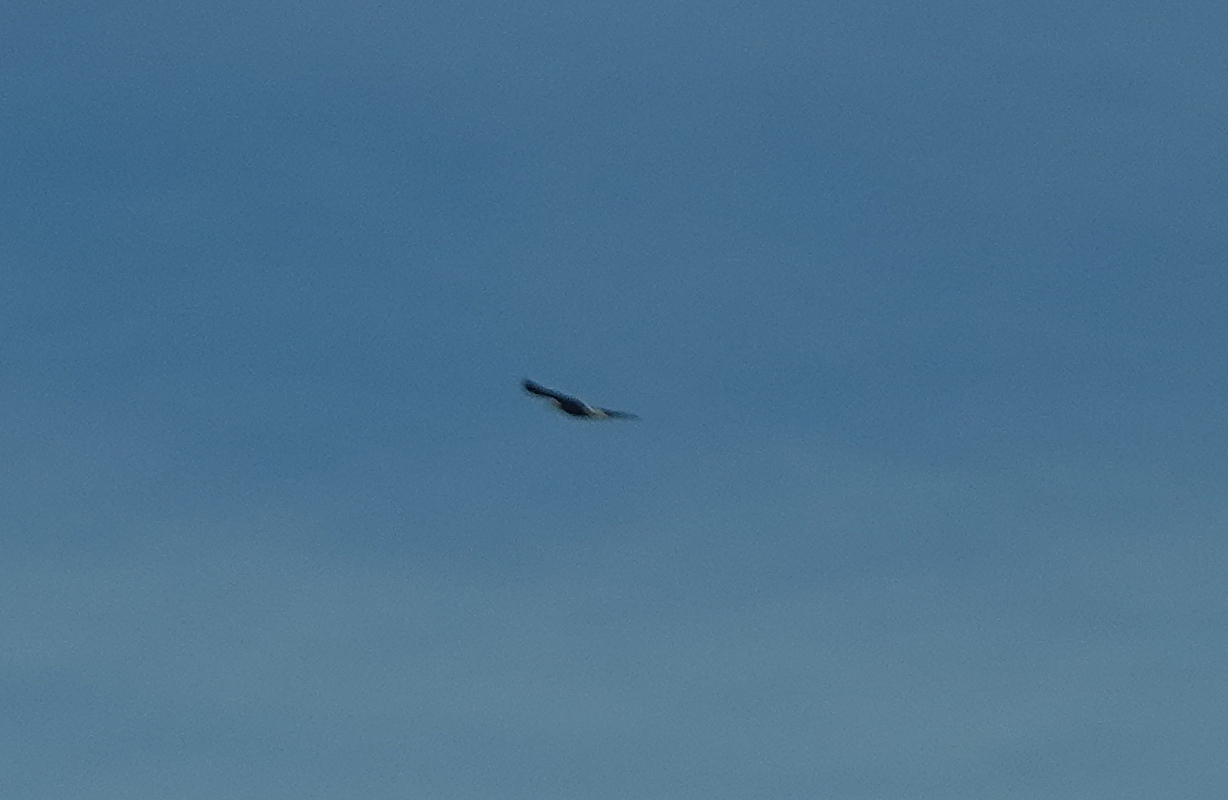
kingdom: Animalia
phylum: Chordata
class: Aves
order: Accipitriformes
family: Accipitridae
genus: Haliaeetus
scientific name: Haliaeetus leucocephalus
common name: Bald eagle
